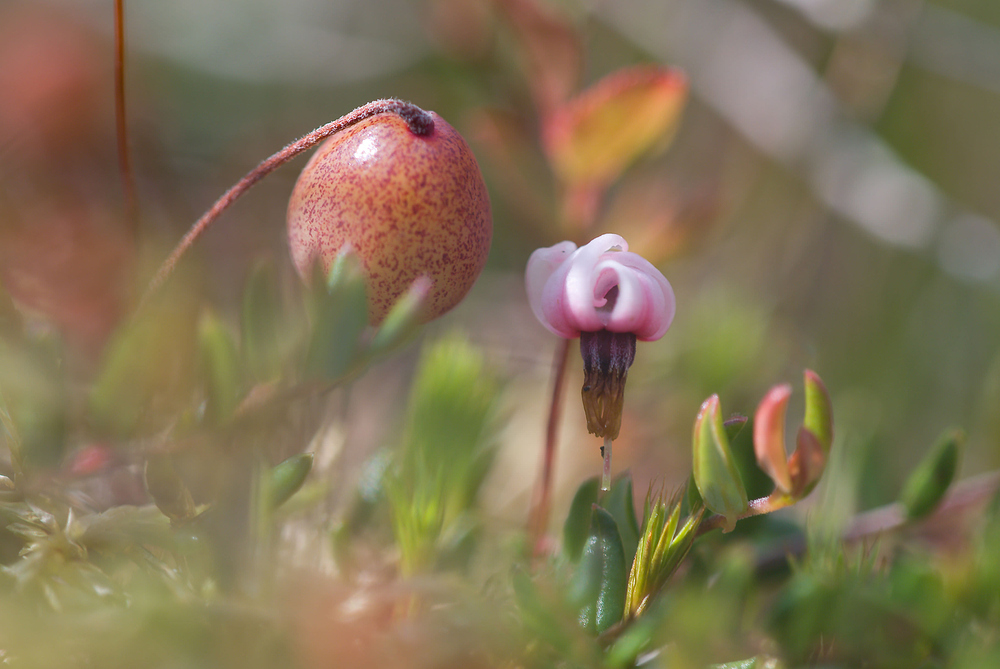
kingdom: Plantae
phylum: Tracheophyta
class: Magnoliopsida
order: Ericales
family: Ericaceae
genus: Vaccinium
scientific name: Vaccinium oxycoccos
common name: Cranberry
